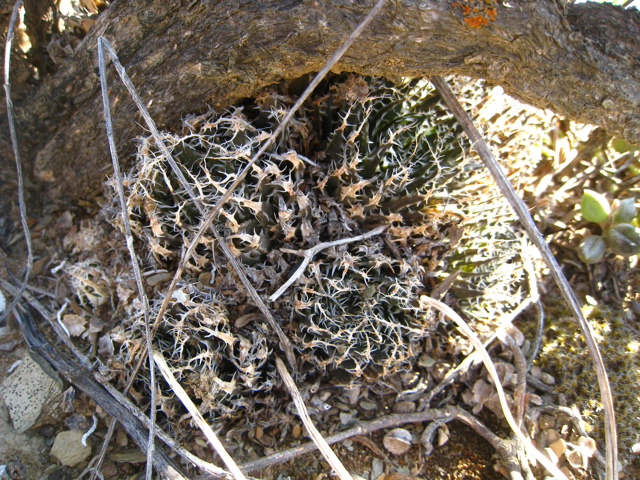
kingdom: Plantae
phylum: Tracheophyta
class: Liliopsida
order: Asparagales
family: Asphodelaceae
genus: Haworthia
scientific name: Haworthia arachnoidea
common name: Cobweb-aloe
